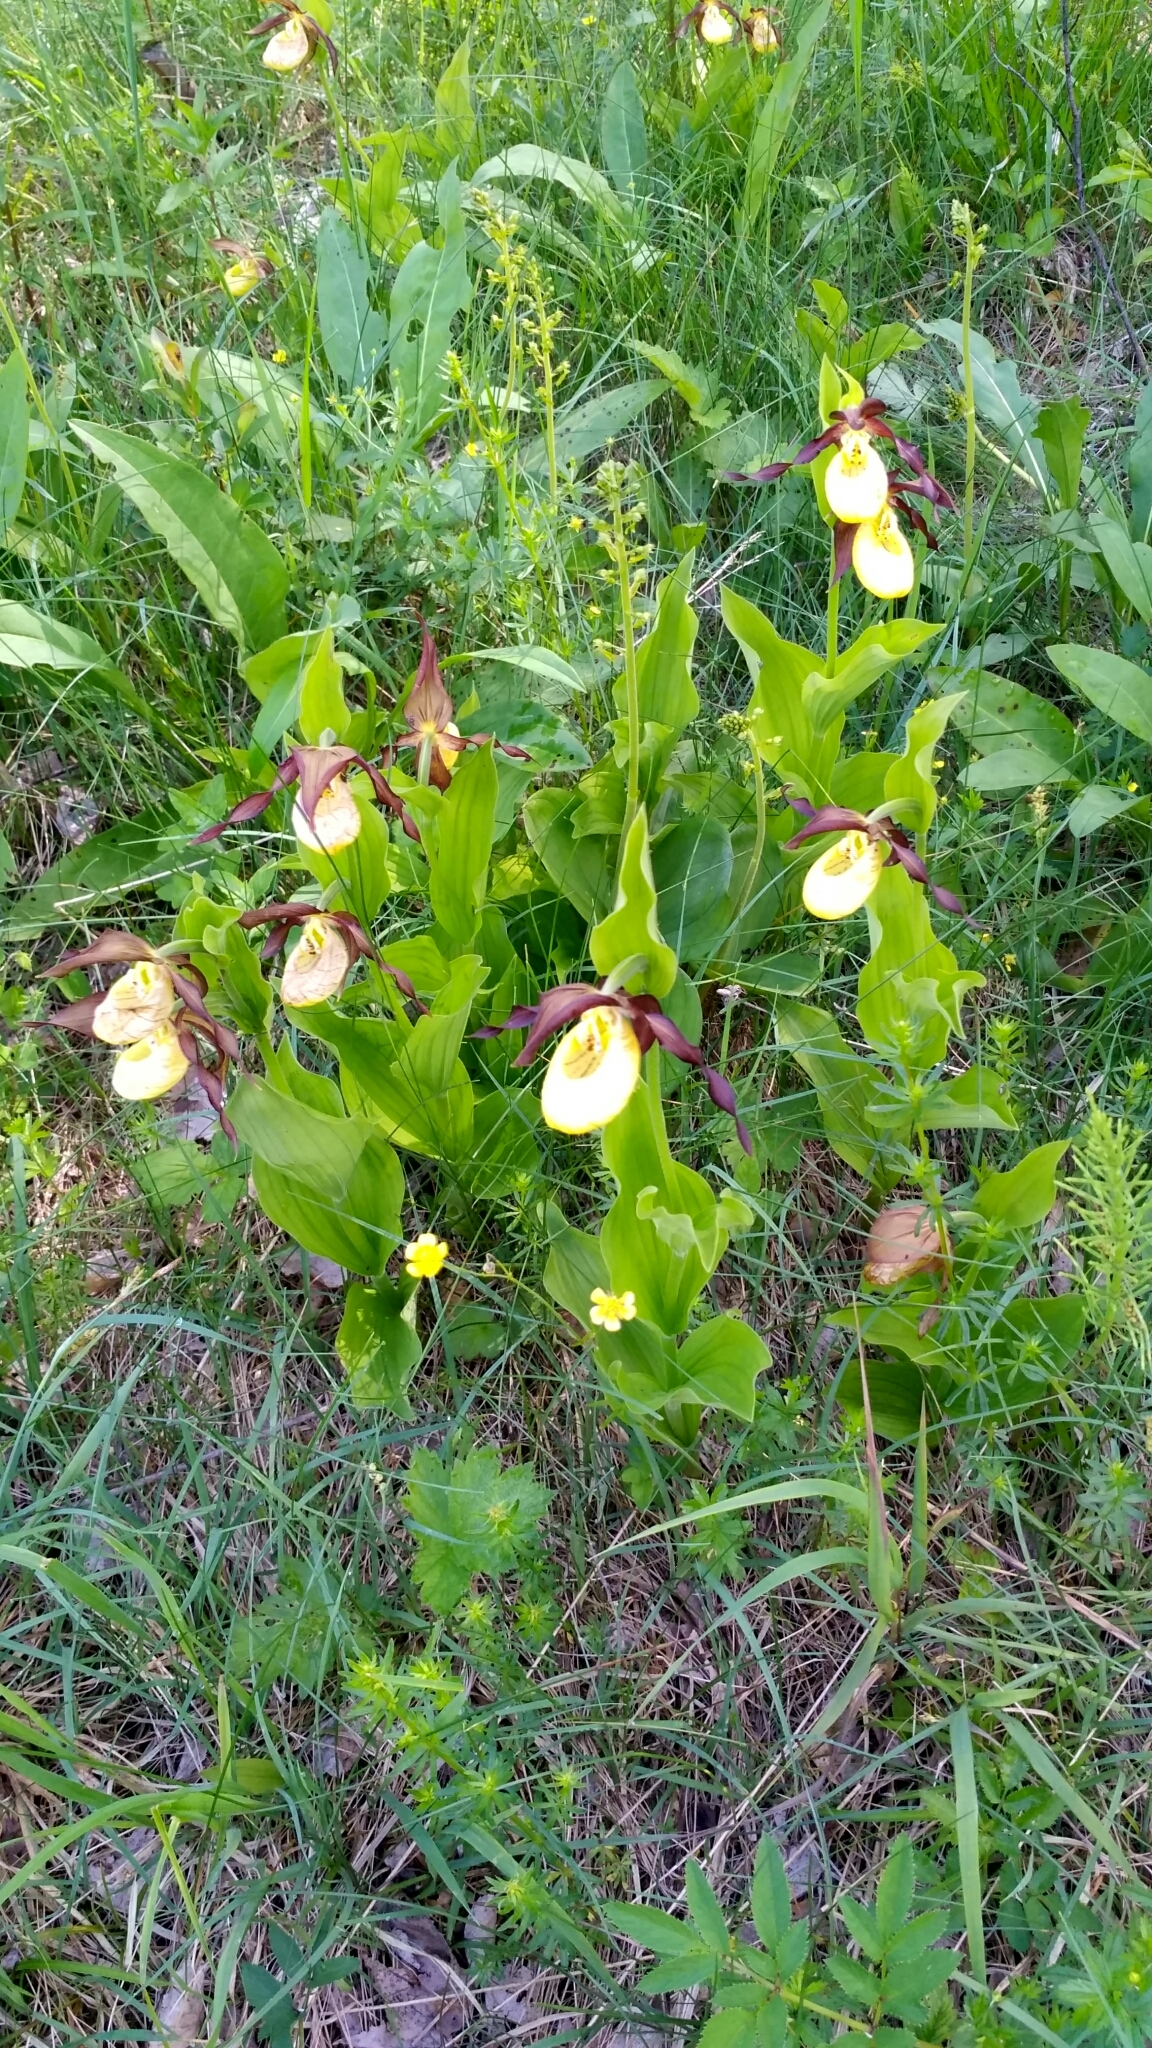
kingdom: Plantae
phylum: Tracheophyta
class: Liliopsida
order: Asparagales
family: Orchidaceae
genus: Cypripedium
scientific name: Cypripedium calceolus
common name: Lady's-slipper
